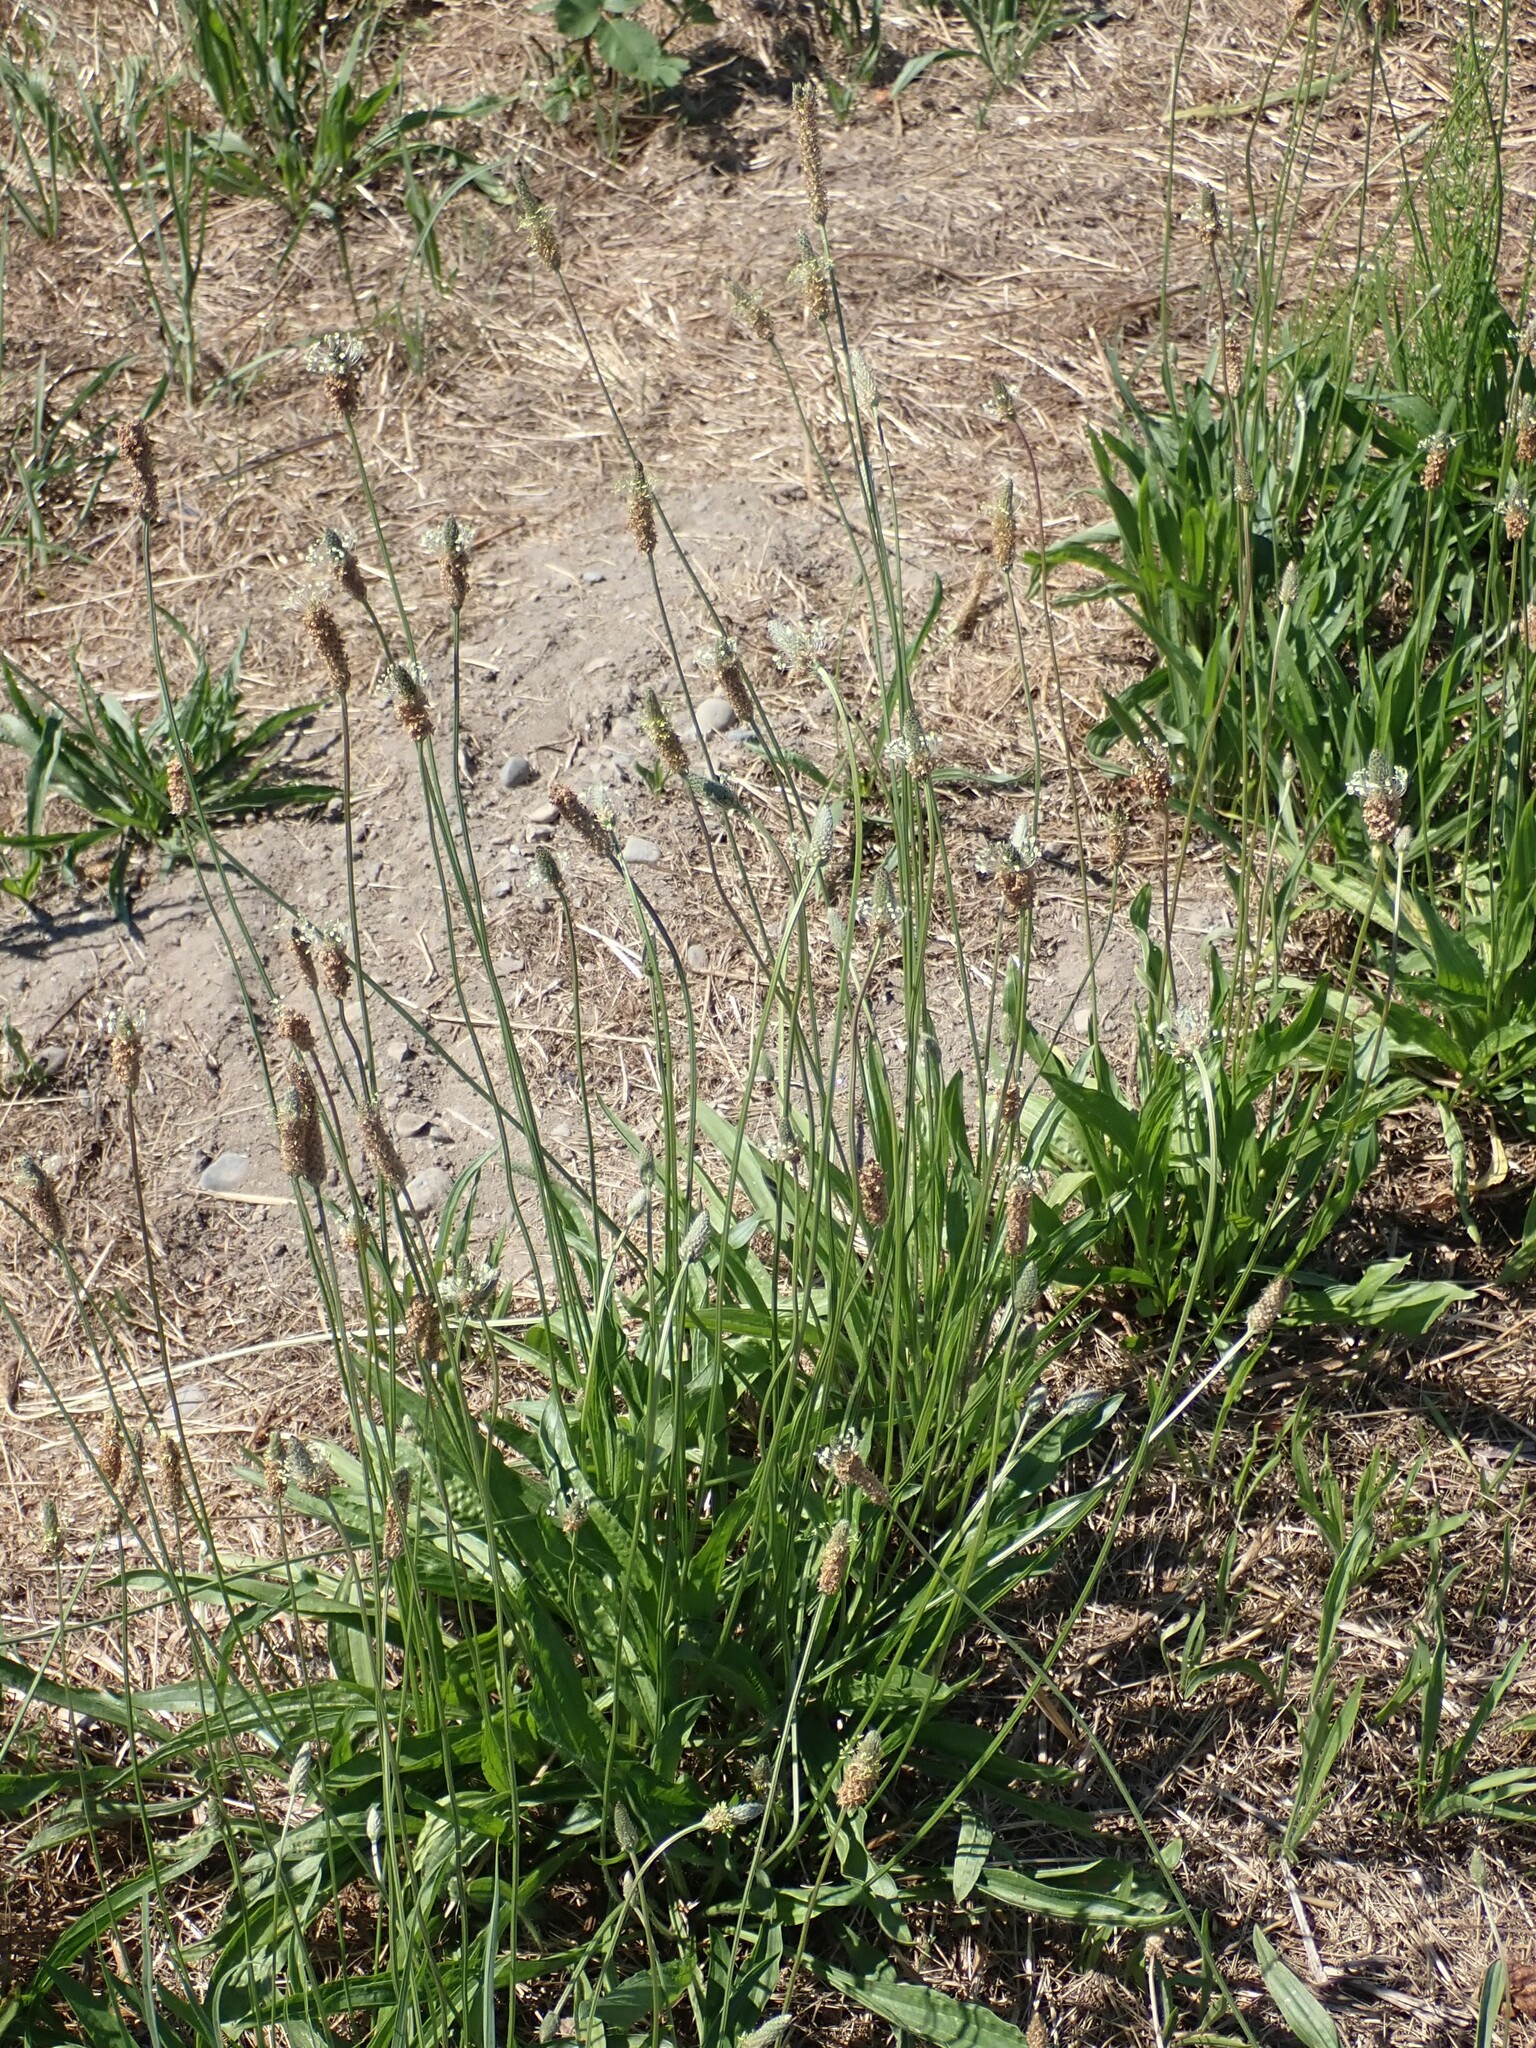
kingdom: Plantae
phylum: Tracheophyta
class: Magnoliopsida
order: Lamiales
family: Plantaginaceae
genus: Plantago
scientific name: Plantago lanceolata
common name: Ribwort plantain
